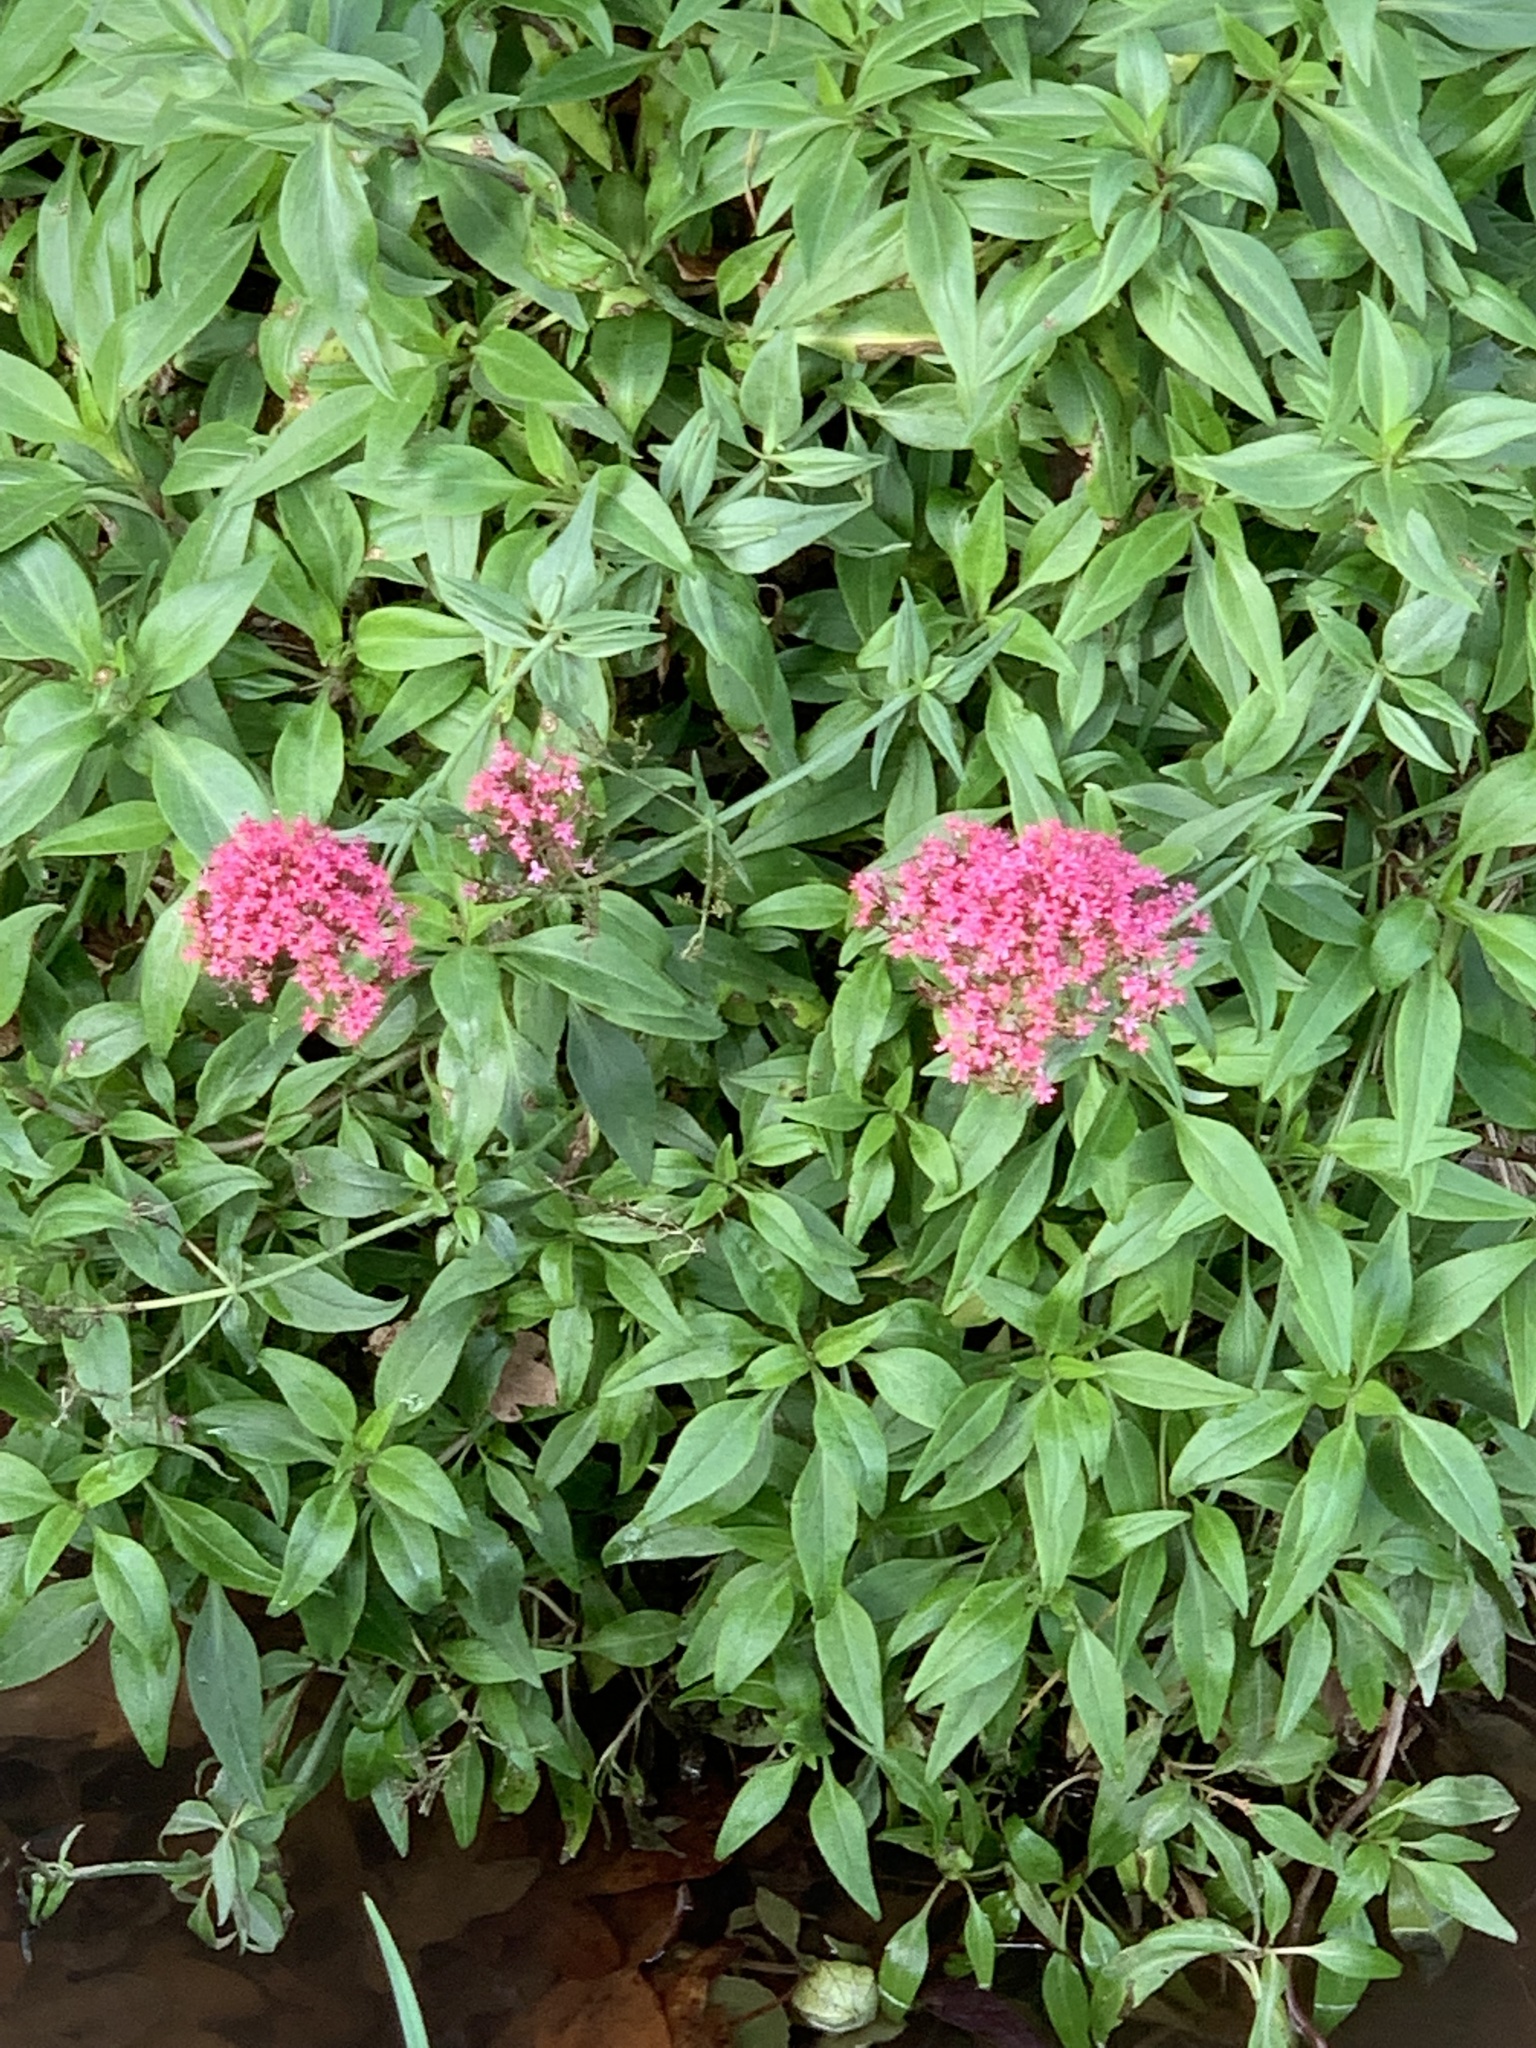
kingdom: Plantae
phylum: Tracheophyta
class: Magnoliopsida
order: Dipsacales
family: Caprifoliaceae
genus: Centranthus
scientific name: Centranthus ruber
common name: Red valerian
